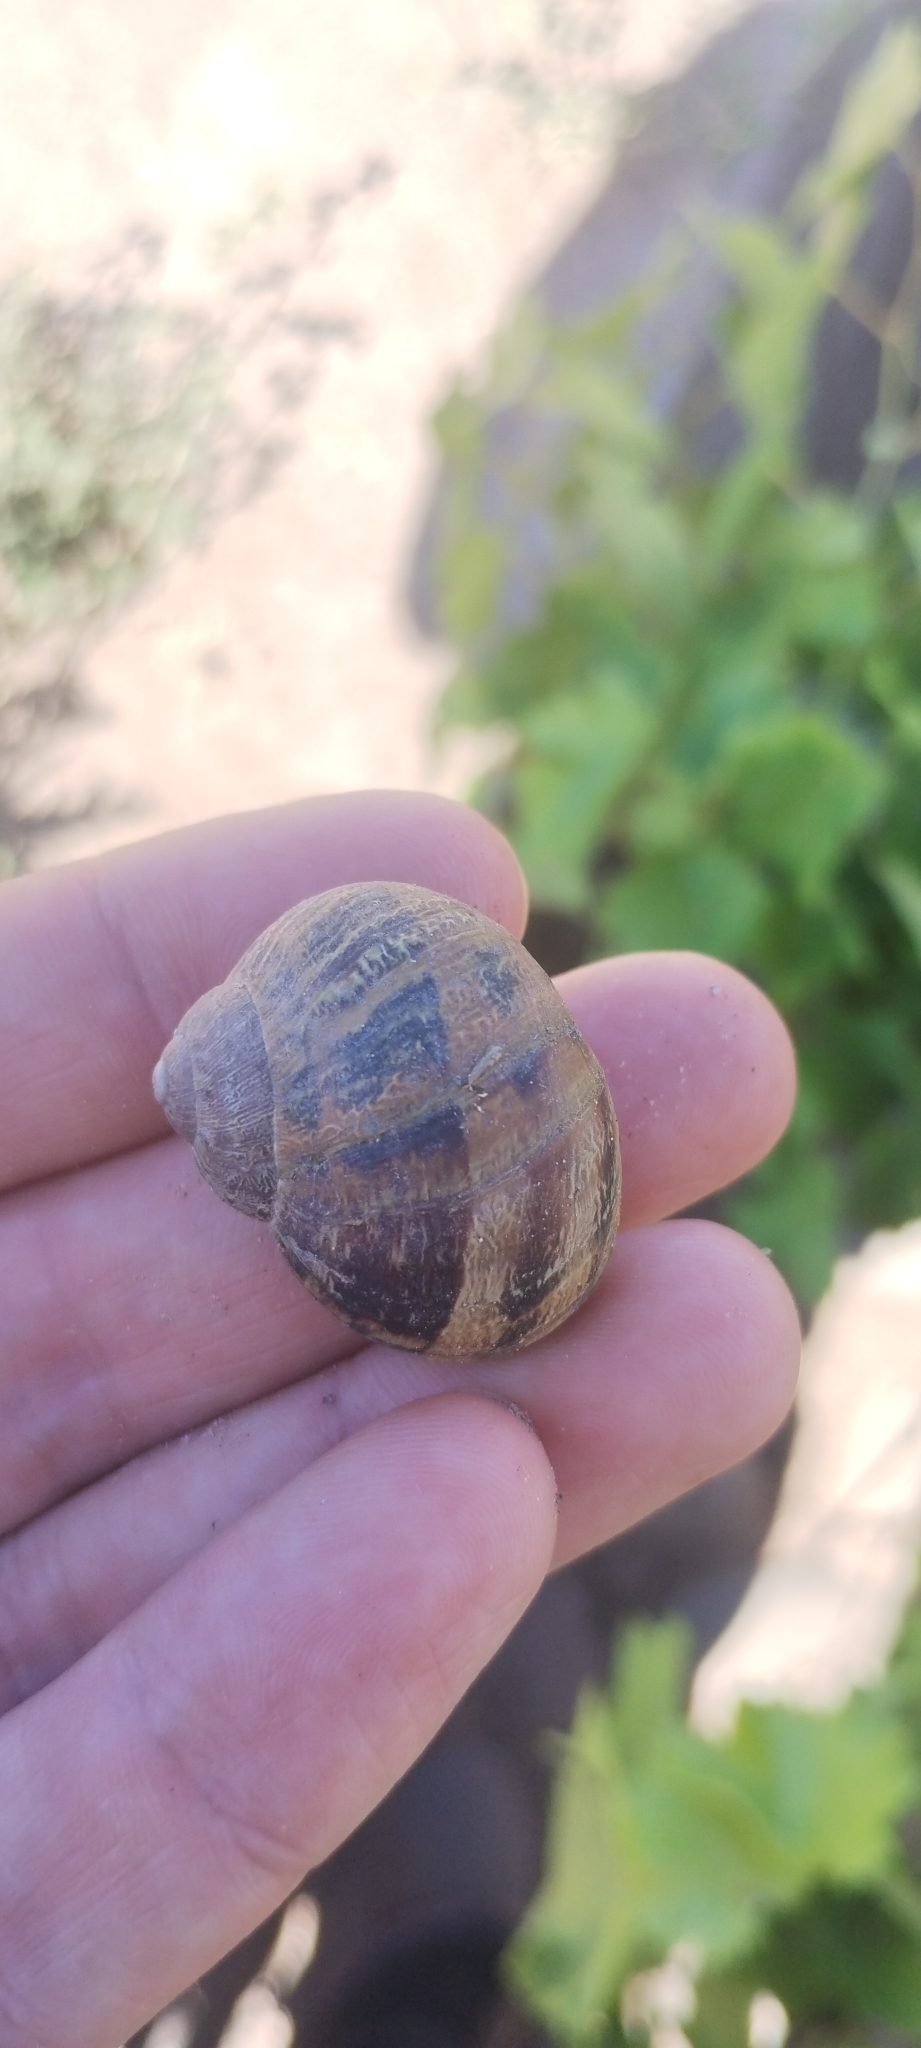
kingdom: Animalia
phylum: Mollusca
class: Gastropoda
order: Stylommatophora
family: Helicidae
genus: Cornu
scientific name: Cornu aspersum
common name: Brown garden snail
